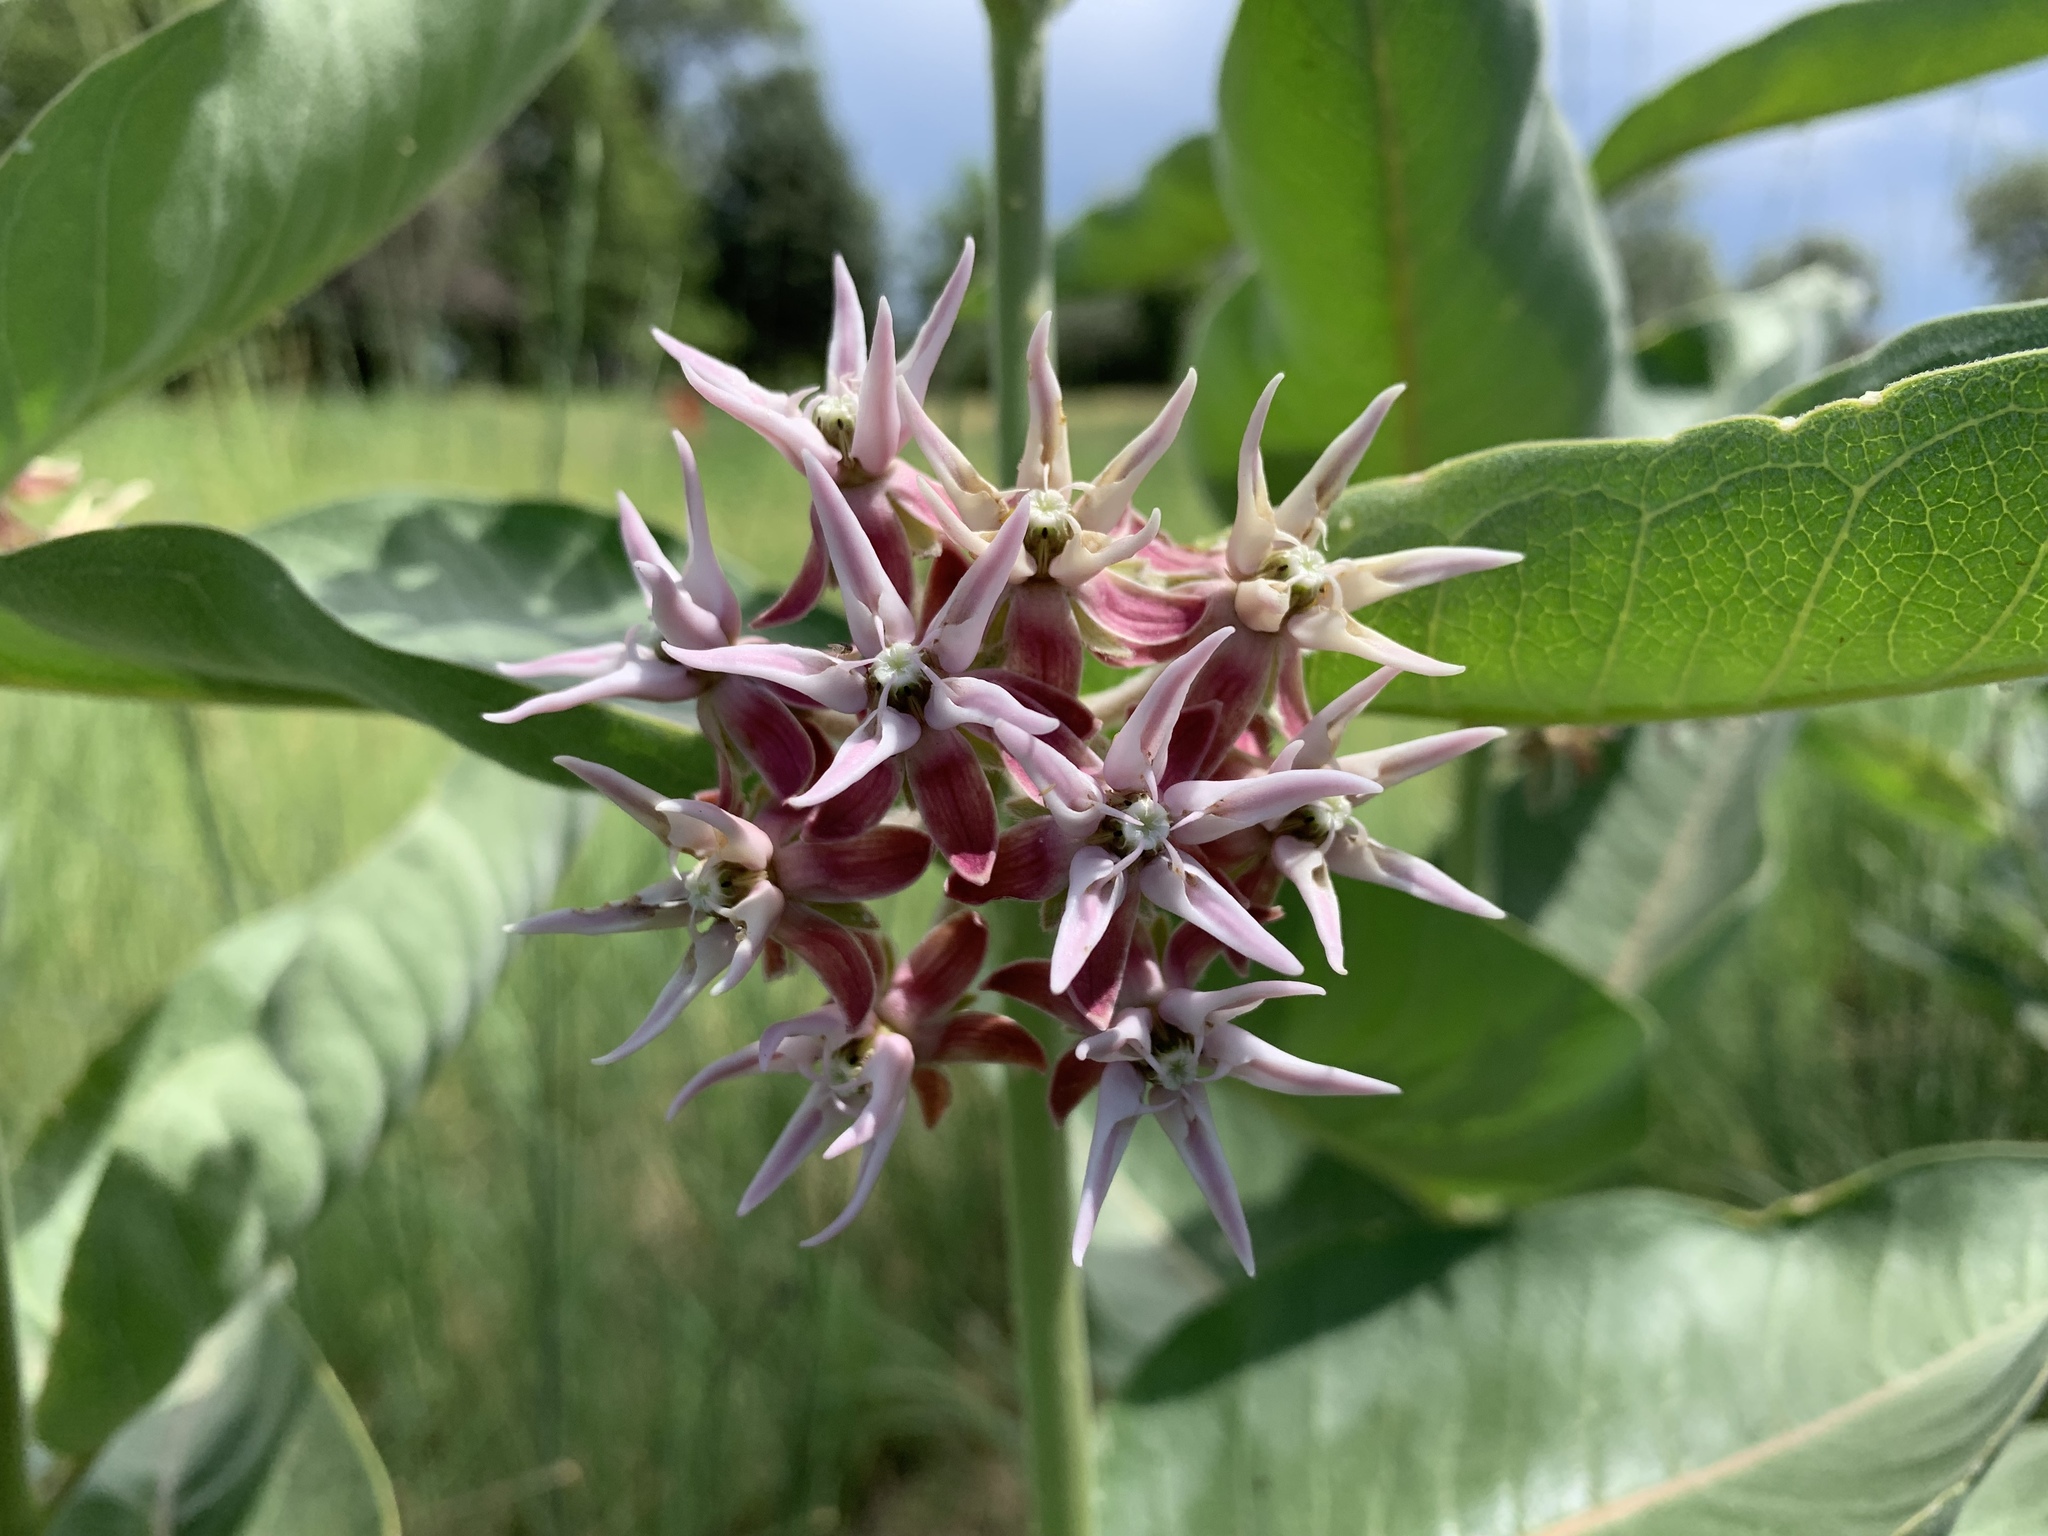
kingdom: Plantae
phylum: Tracheophyta
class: Magnoliopsida
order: Gentianales
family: Apocynaceae
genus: Asclepias
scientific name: Asclepias speciosa
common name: Showy milkweed
